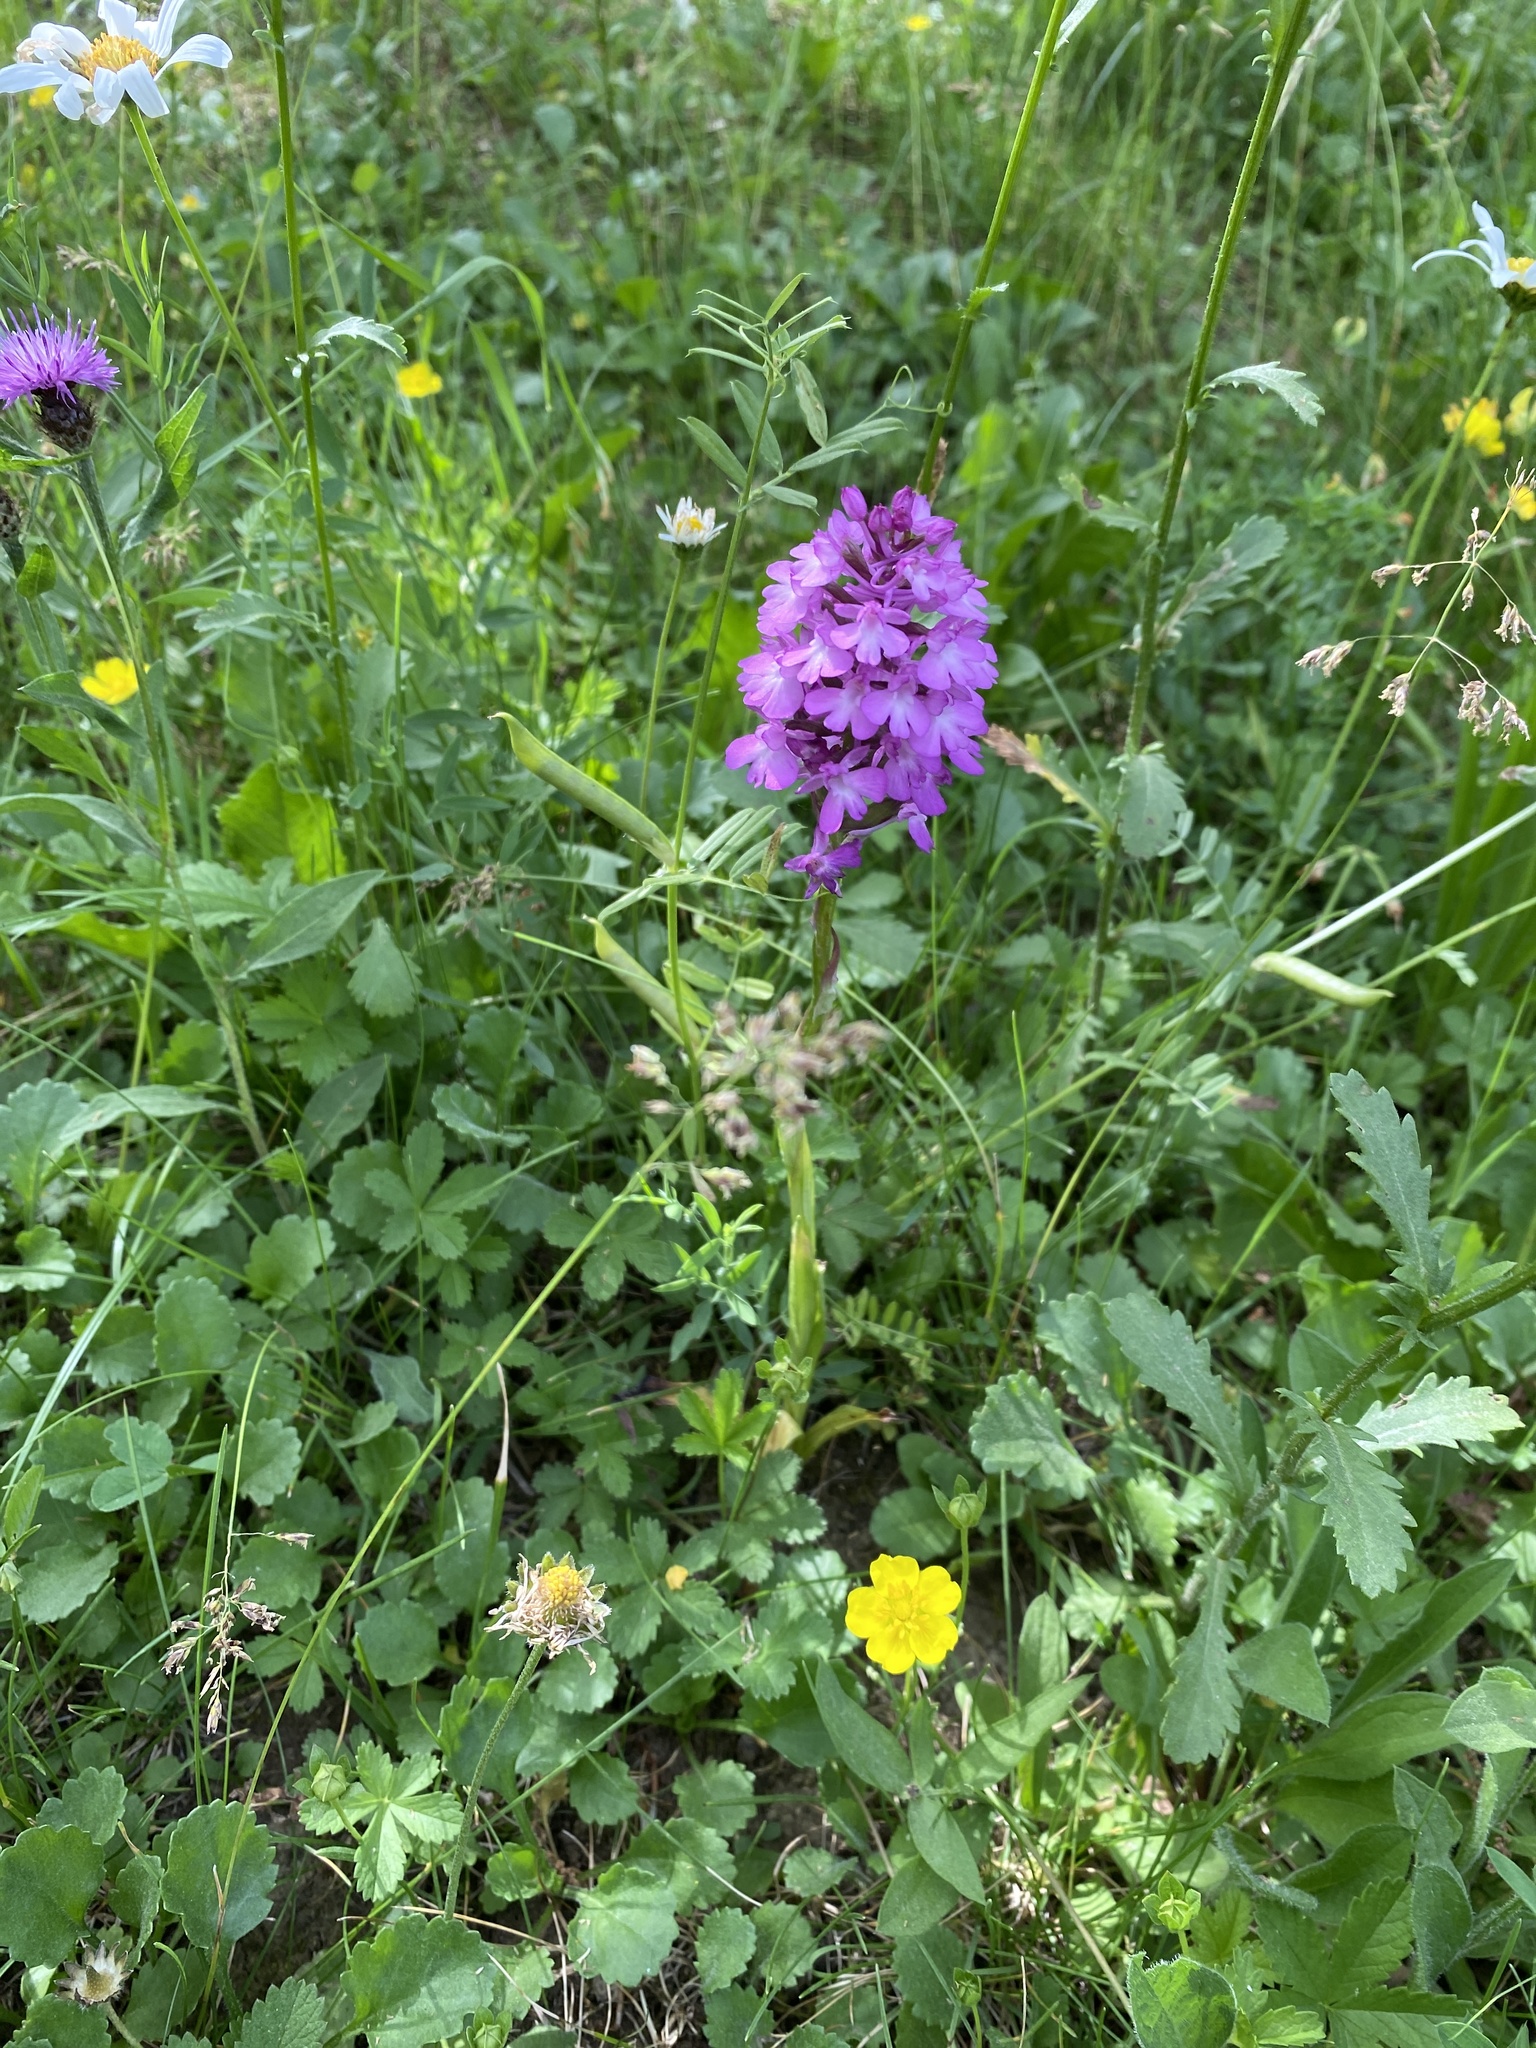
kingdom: Plantae
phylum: Tracheophyta
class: Liliopsida
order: Asparagales
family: Orchidaceae
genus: Anacamptis
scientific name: Anacamptis pyramidalis
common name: Pyramidal orchid
